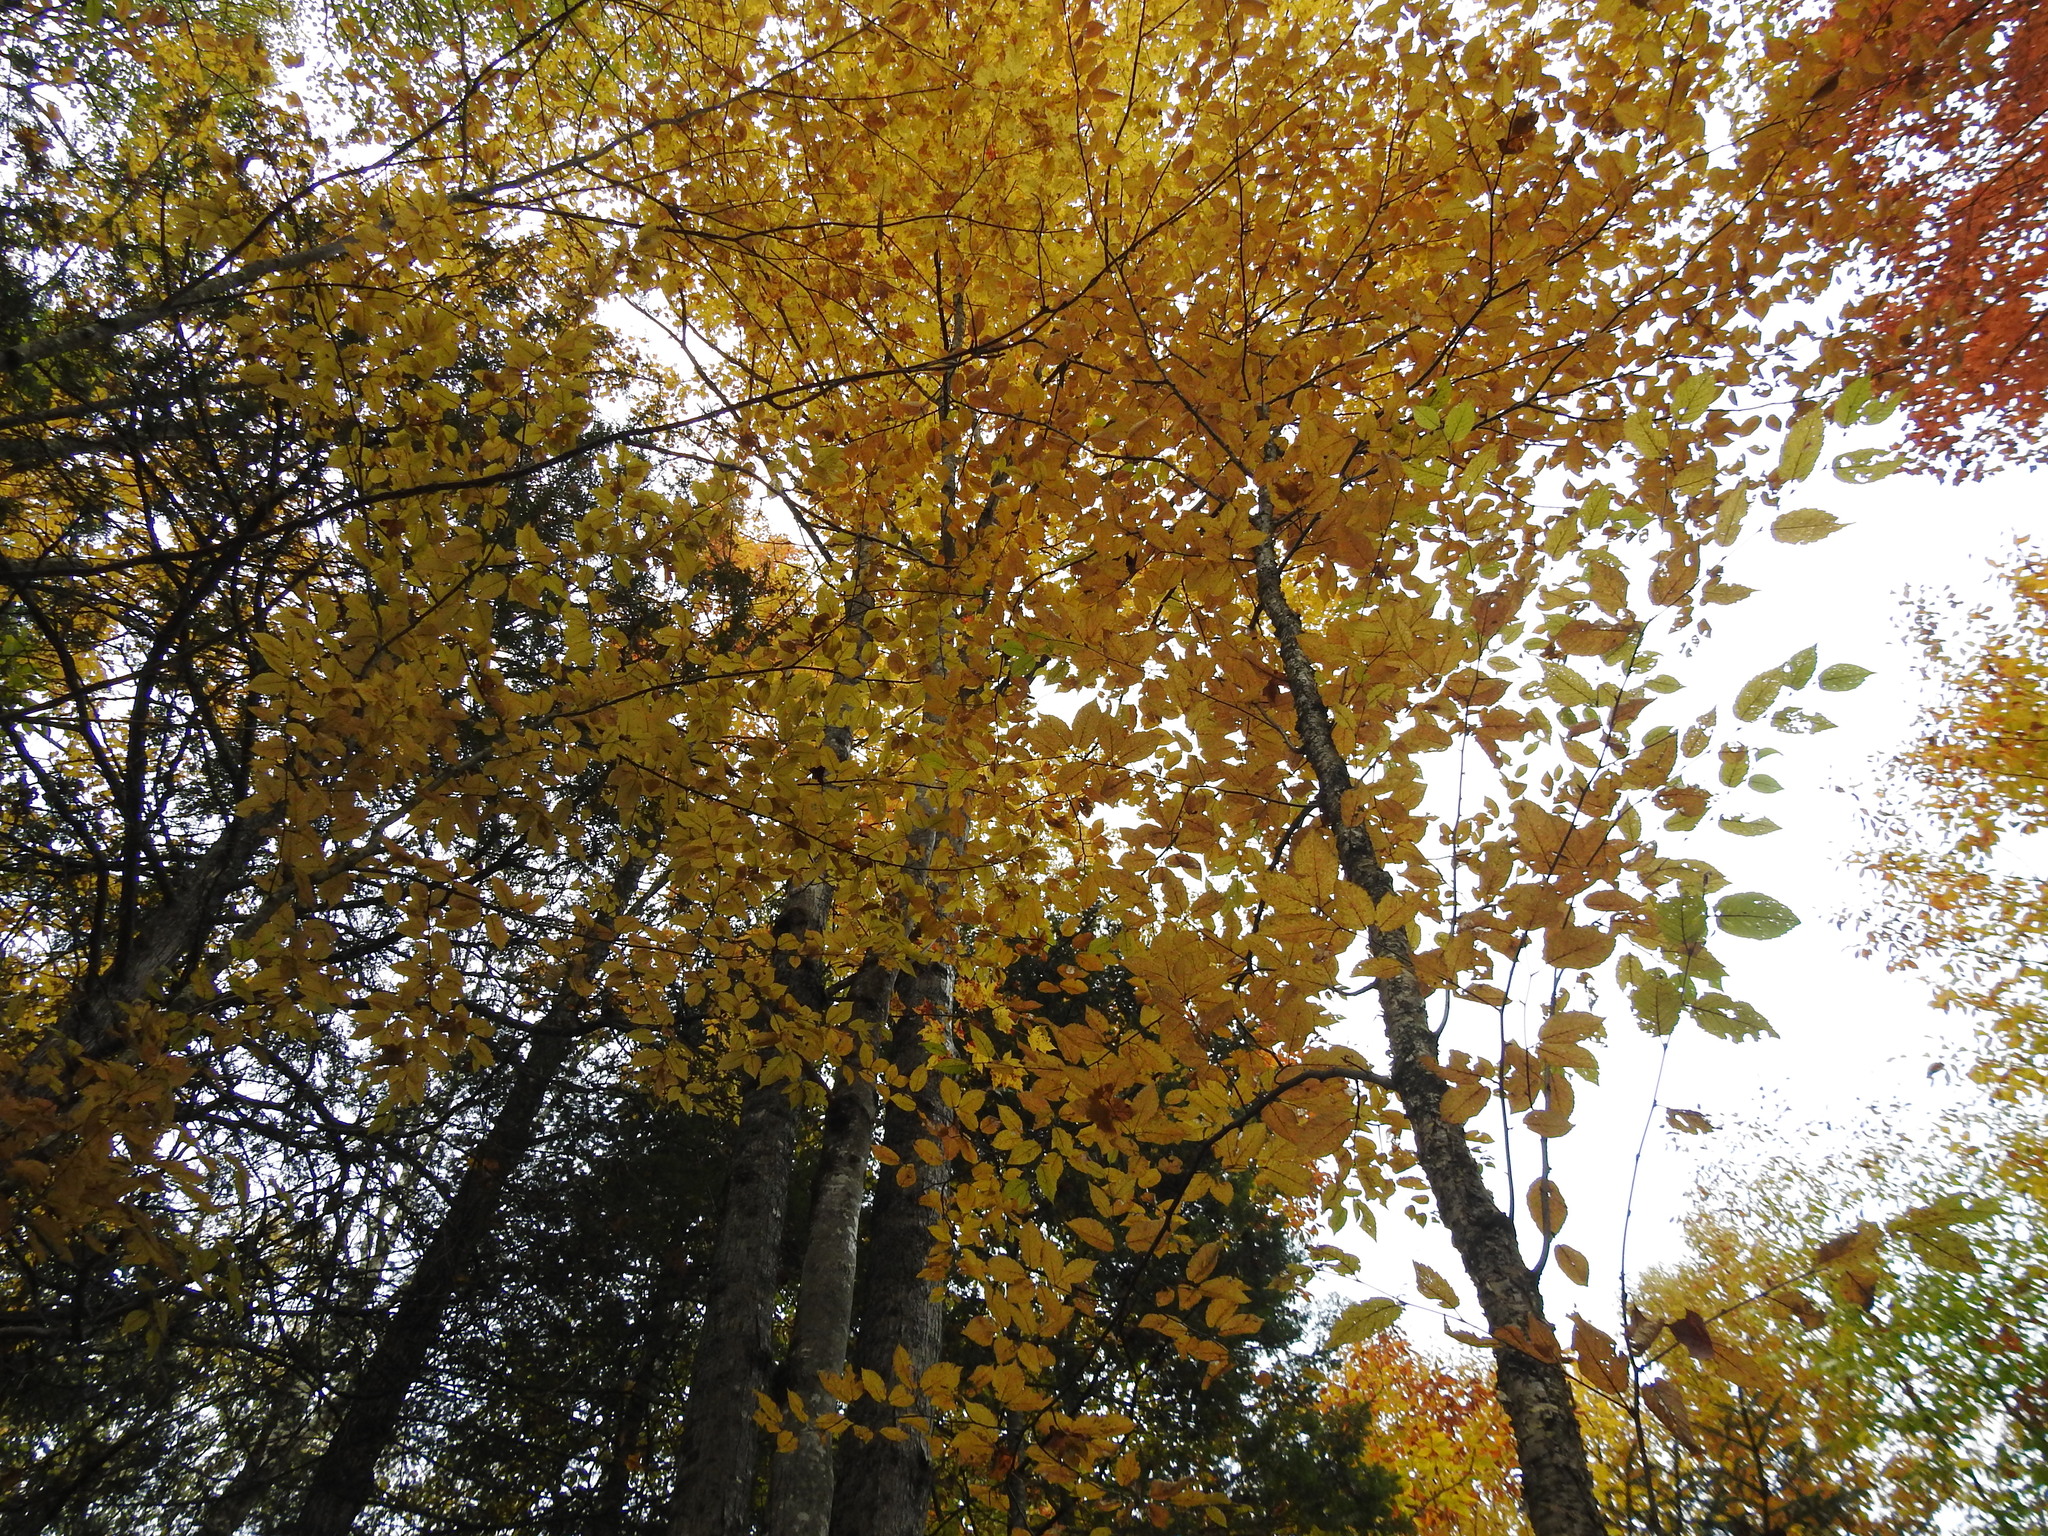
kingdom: Plantae
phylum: Tracheophyta
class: Magnoliopsida
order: Fagales
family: Betulaceae
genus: Betula
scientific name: Betula alleghaniensis
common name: Yellow birch
